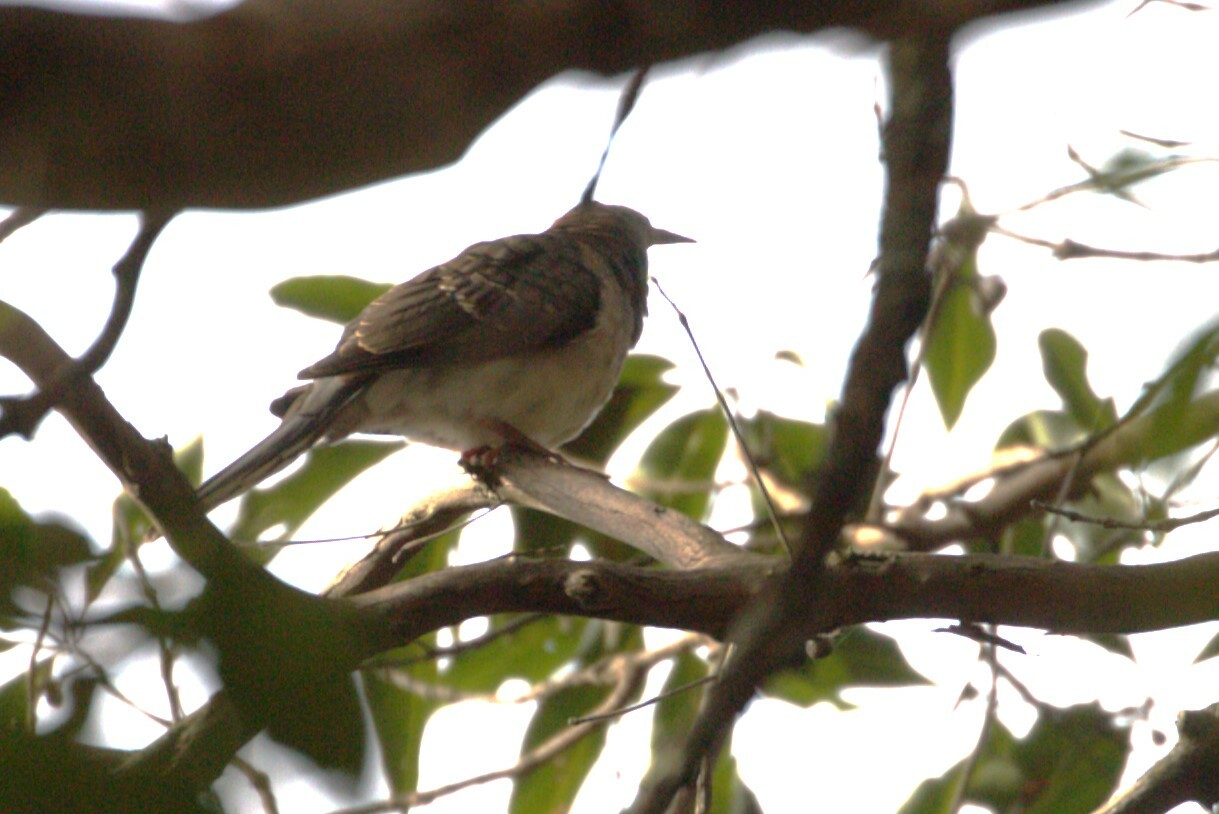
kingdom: Animalia
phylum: Chordata
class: Aves
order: Columbiformes
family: Columbidae
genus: Geopelia
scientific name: Geopelia humeralis
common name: Bar-shouldered dove
